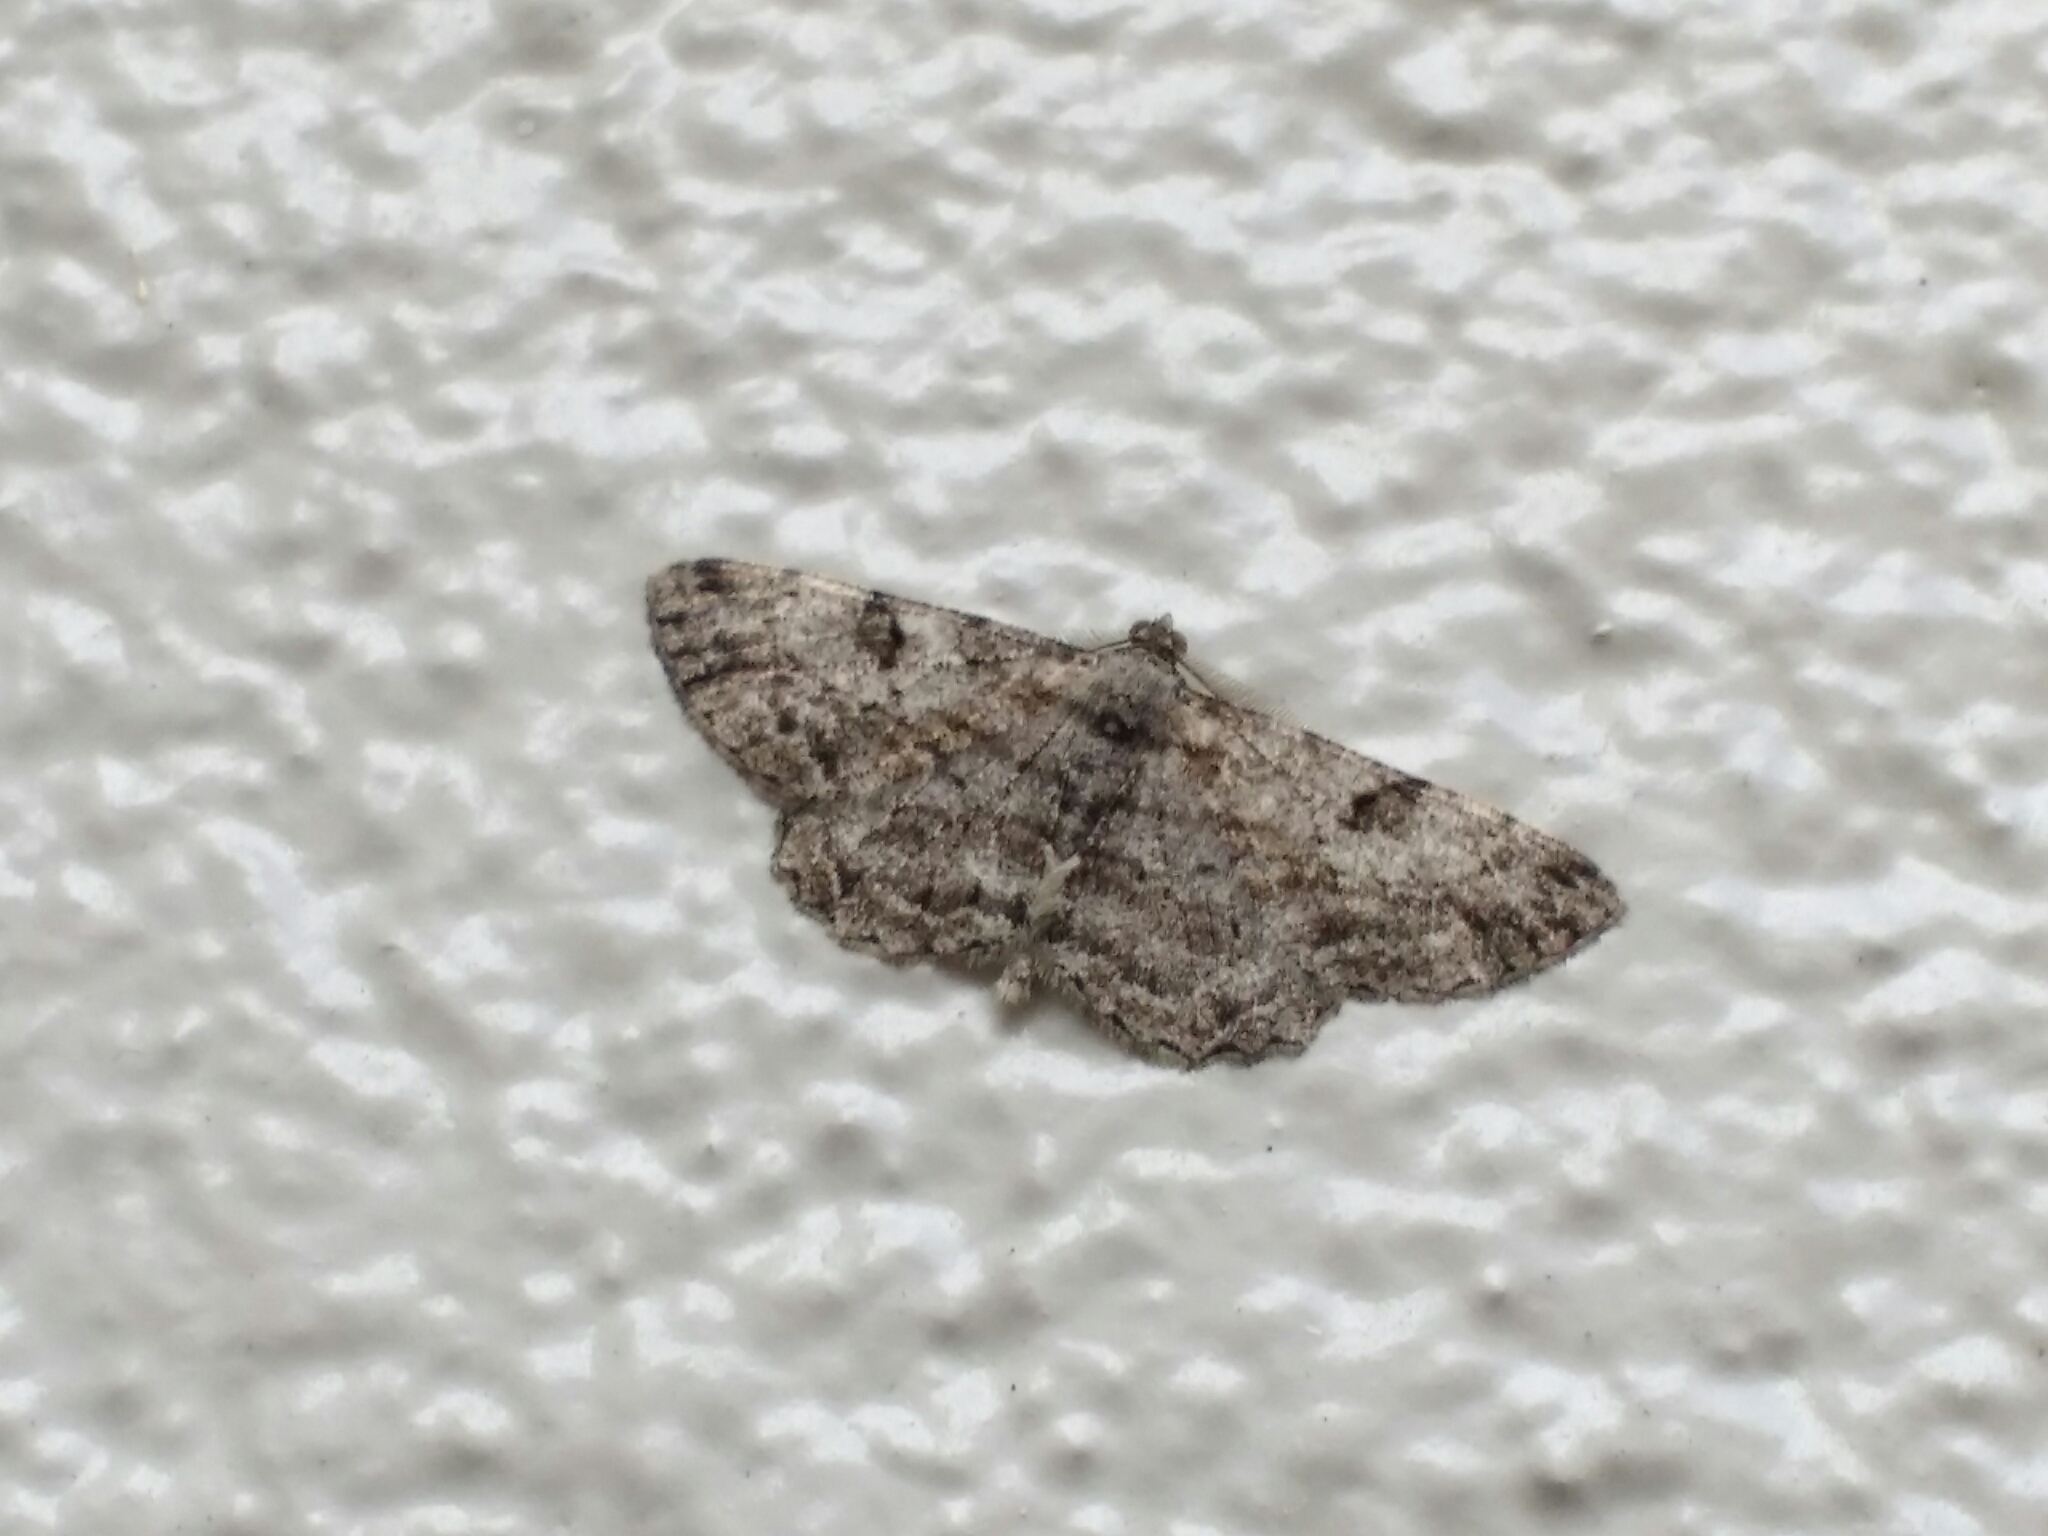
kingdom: Animalia
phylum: Arthropoda
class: Insecta
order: Lepidoptera
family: Geometridae
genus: Peribatodes
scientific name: Peribatodes rhomboidaria
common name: Willow beauty
